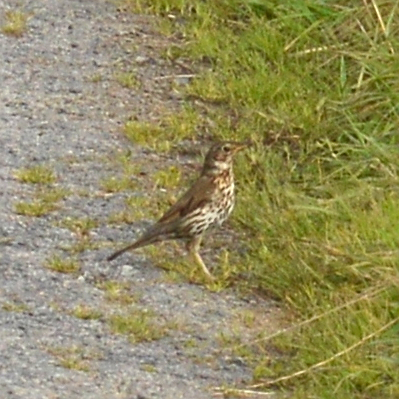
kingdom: Animalia
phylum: Chordata
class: Aves
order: Passeriformes
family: Turdidae
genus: Turdus
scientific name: Turdus philomelos
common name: Song thrush
